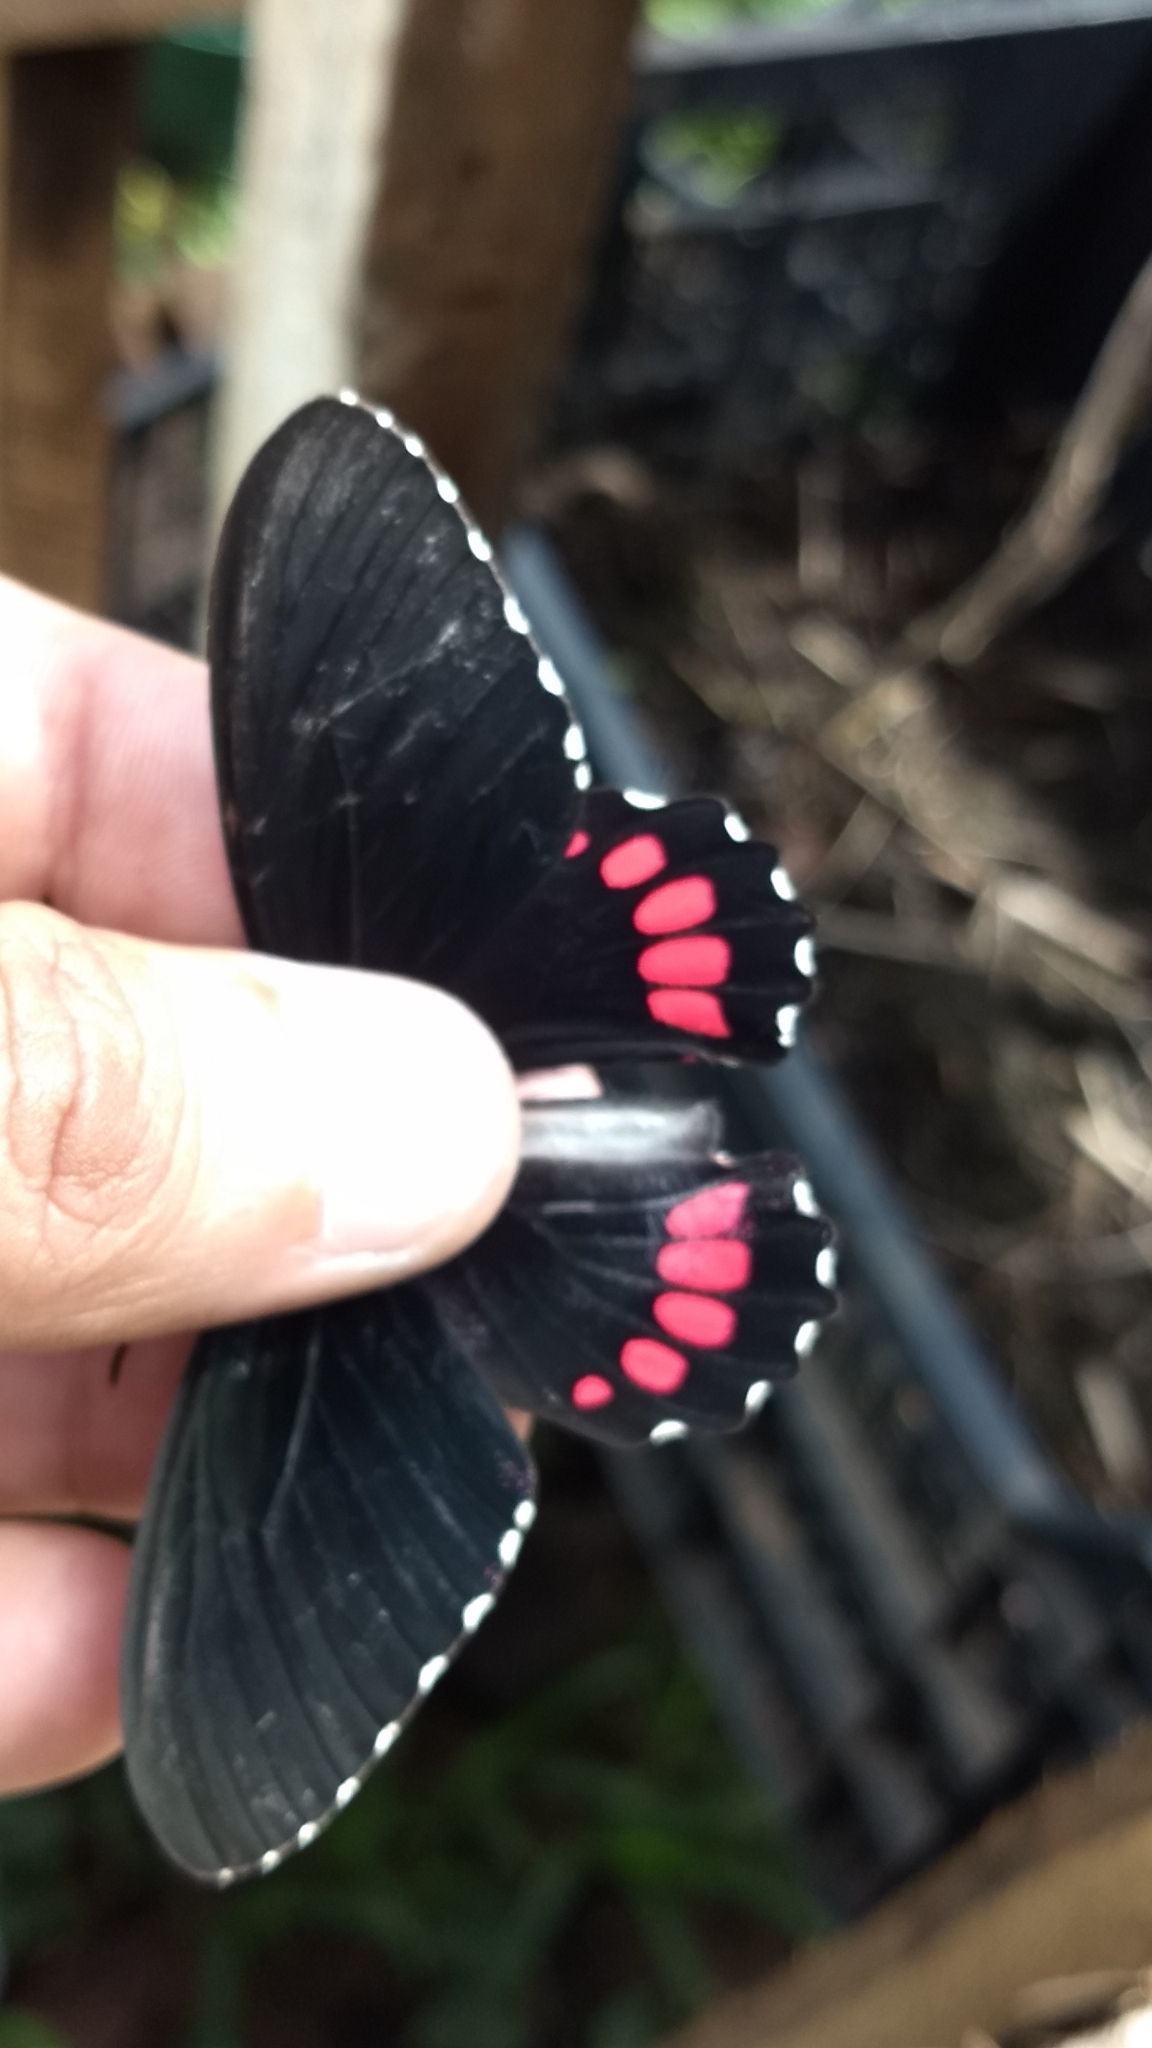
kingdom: Animalia
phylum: Arthropoda
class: Insecta
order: Lepidoptera
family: Papilionidae
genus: Parides
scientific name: Parides erithalion
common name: Variable cattleheart
